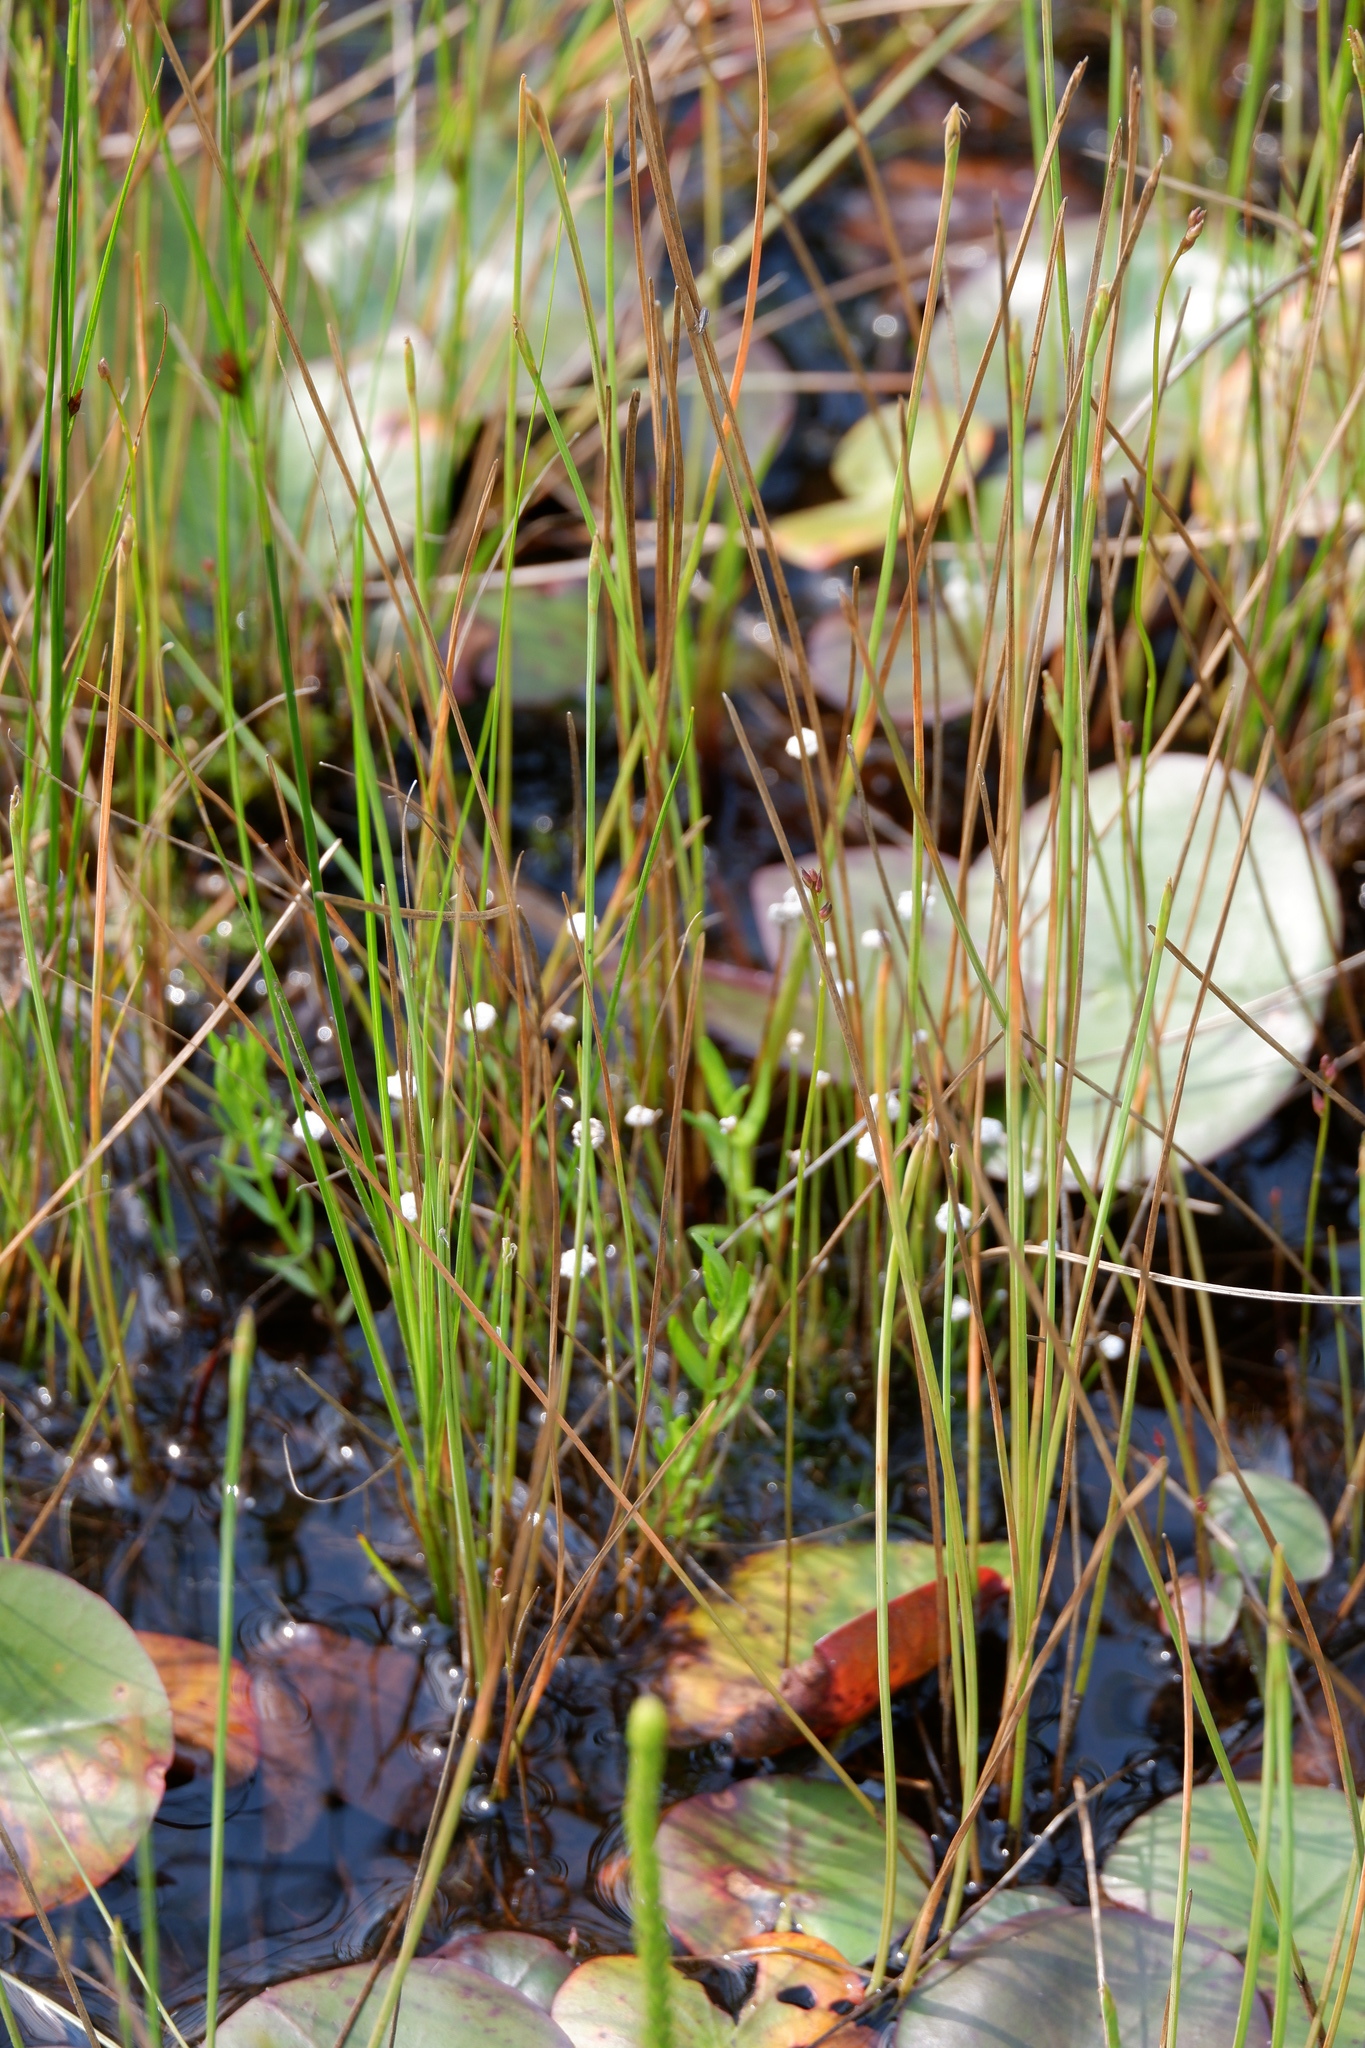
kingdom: Plantae
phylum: Tracheophyta
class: Liliopsida
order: Poales
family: Eriocaulaceae
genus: Eriocaulon
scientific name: Eriocaulon aquaticum
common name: Pipewort
